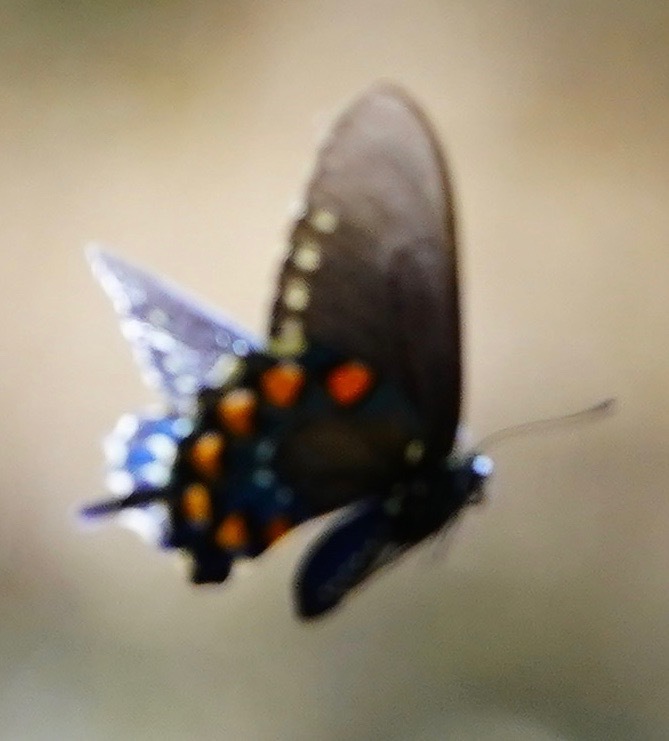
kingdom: Animalia
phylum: Arthropoda
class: Insecta
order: Lepidoptera
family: Papilionidae
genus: Battus
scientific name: Battus philenor
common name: Pipevine swallowtail
